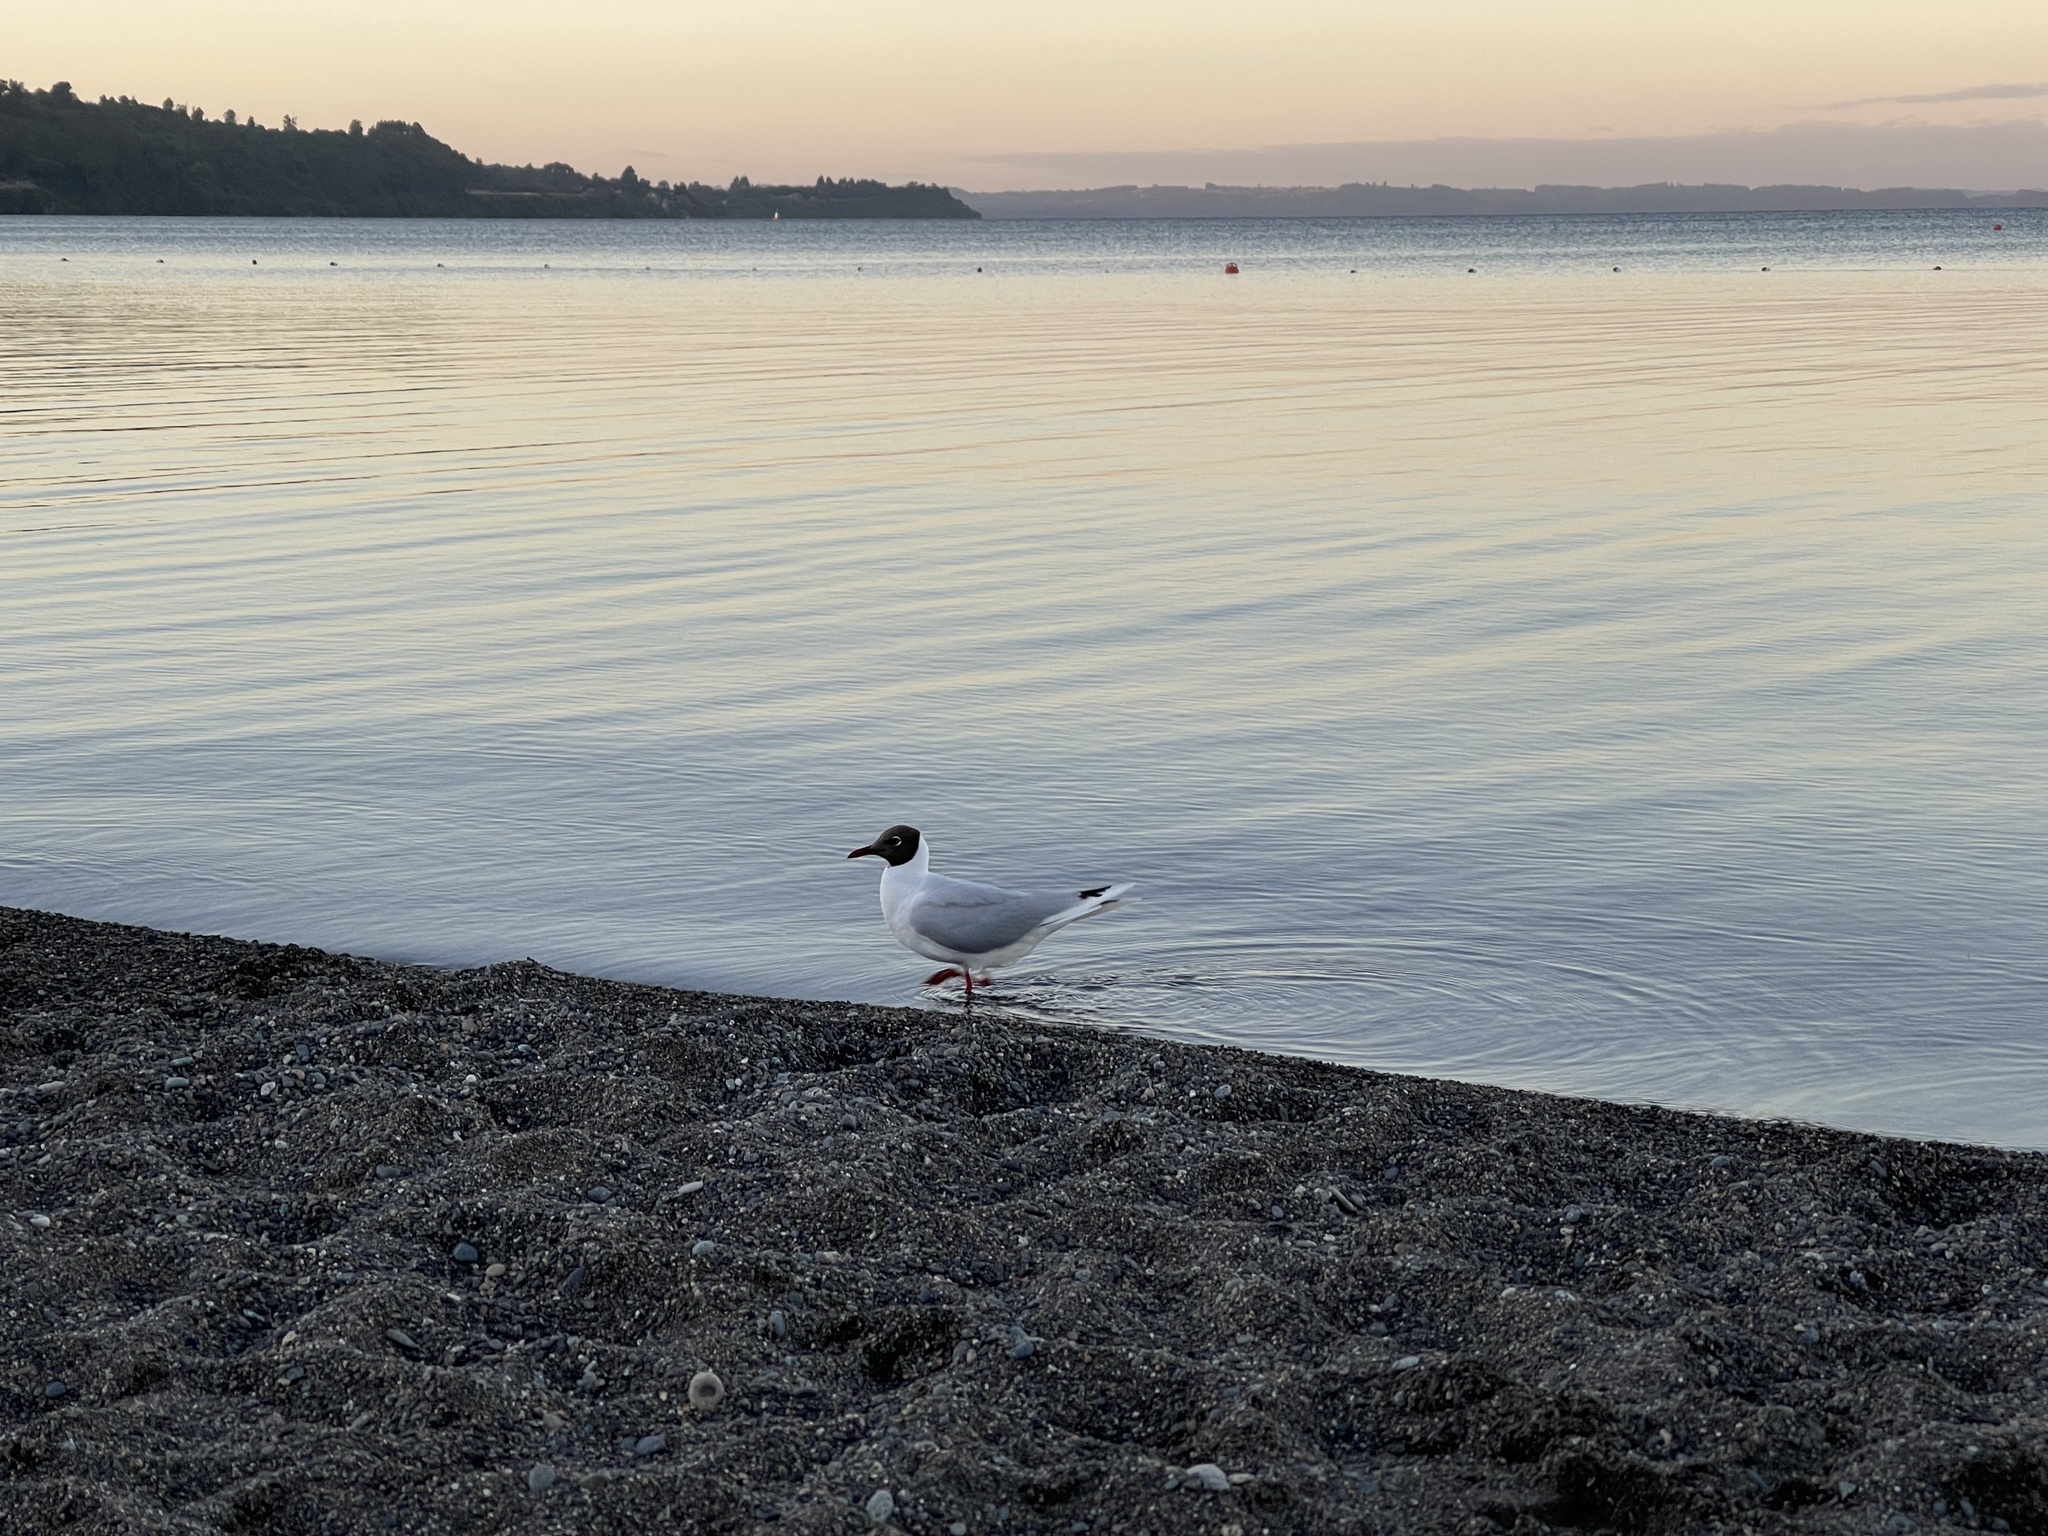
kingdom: Animalia
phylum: Chordata
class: Aves
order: Charadriiformes
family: Laridae
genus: Chroicocephalus
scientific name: Chroicocephalus maculipennis
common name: Brown-hooded gull
